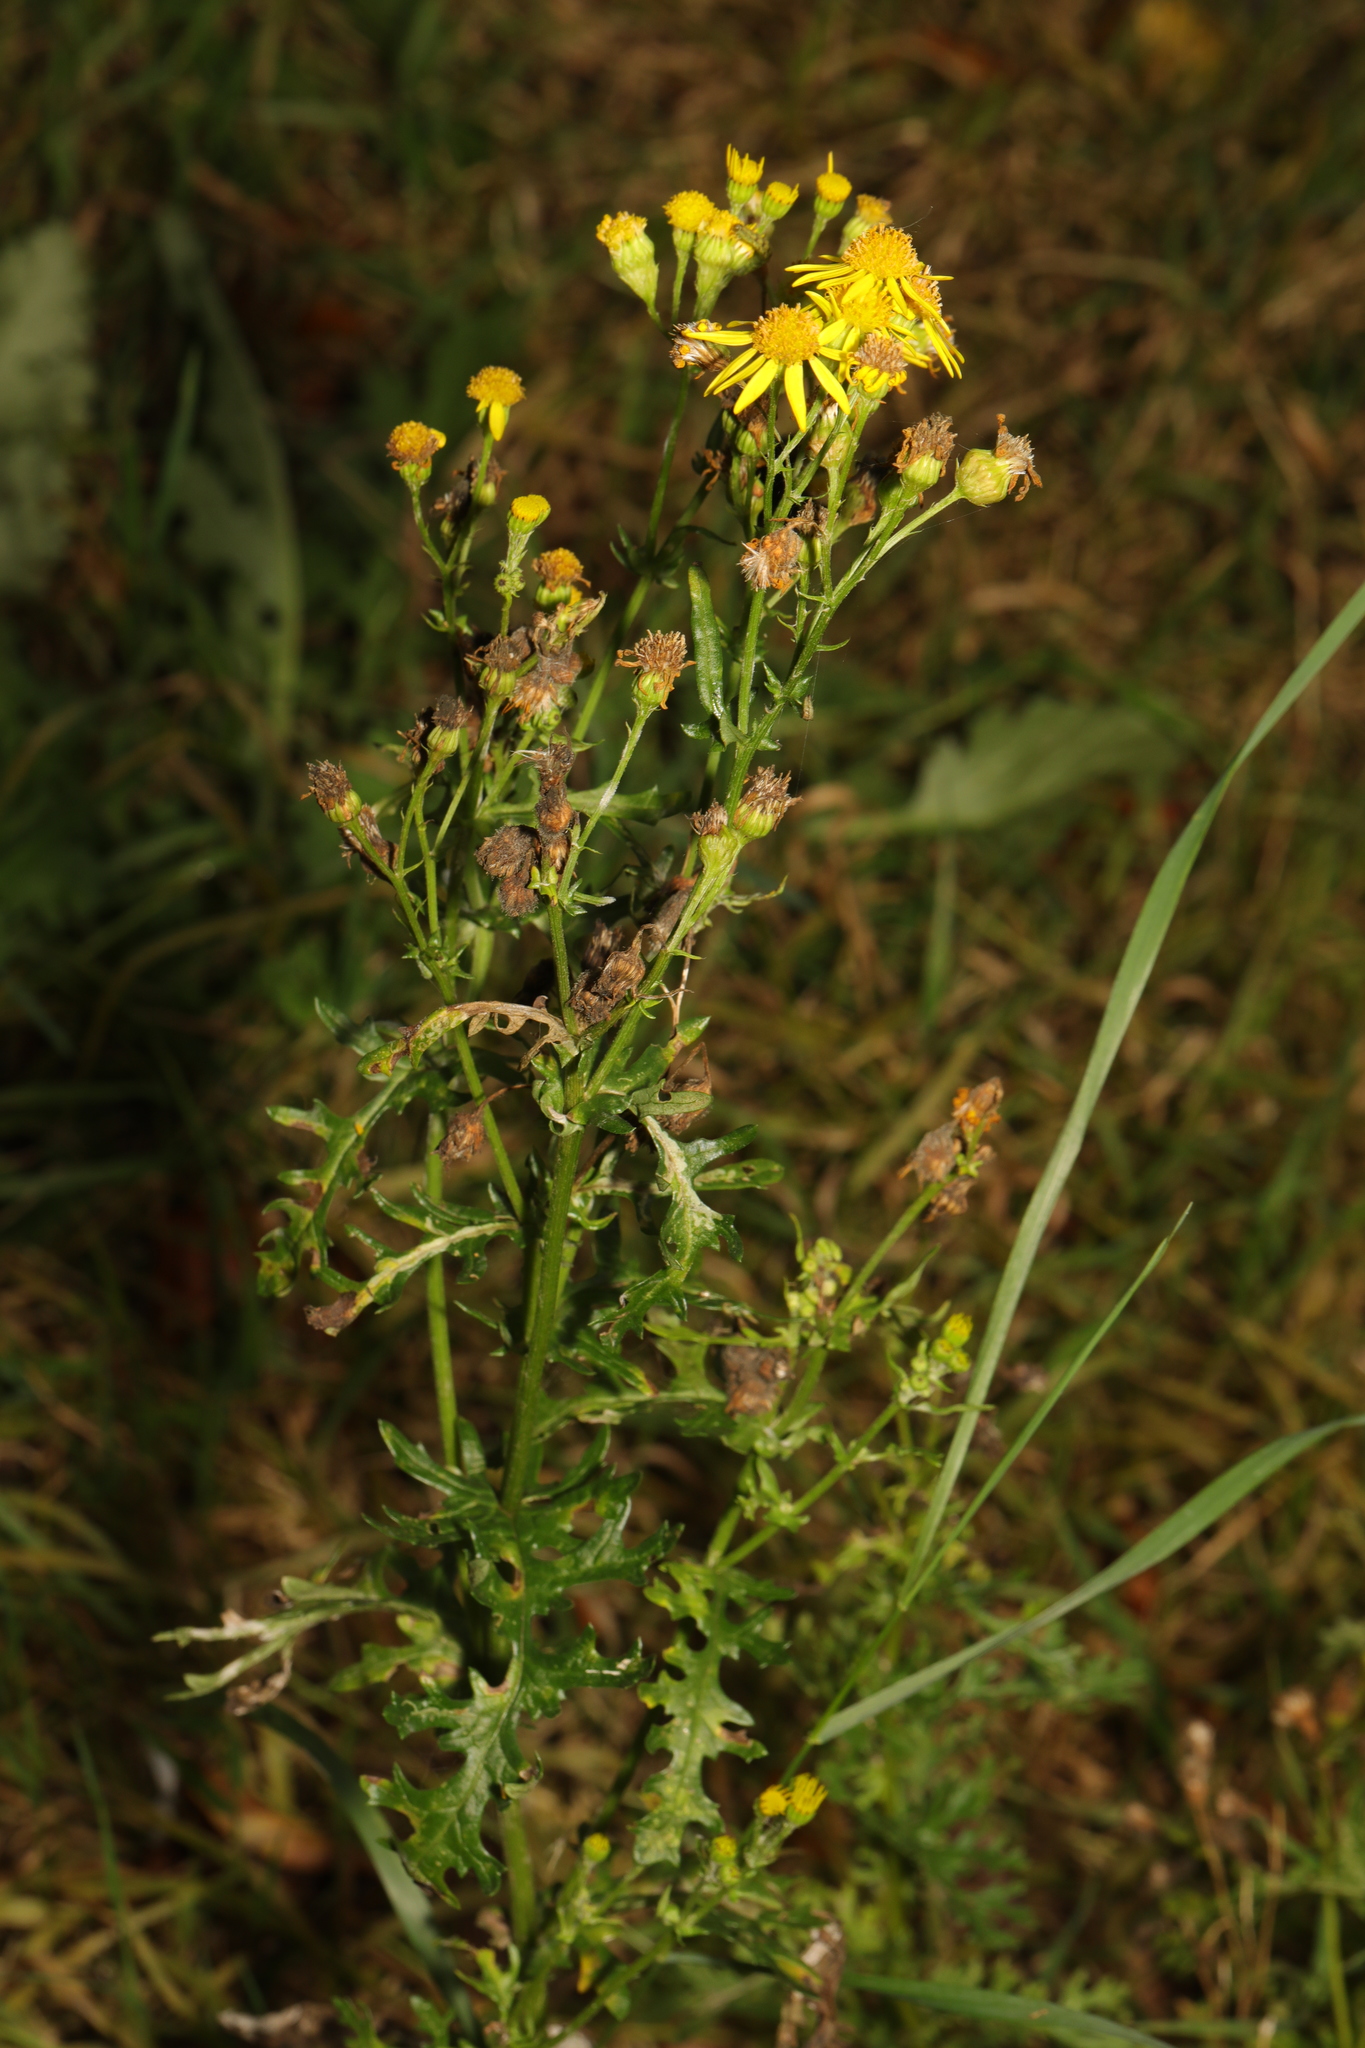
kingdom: Plantae
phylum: Tracheophyta
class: Magnoliopsida
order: Asterales
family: Asteraceae
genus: Jacobaea
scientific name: Jacobaea vulgaris
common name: Stinking willie
